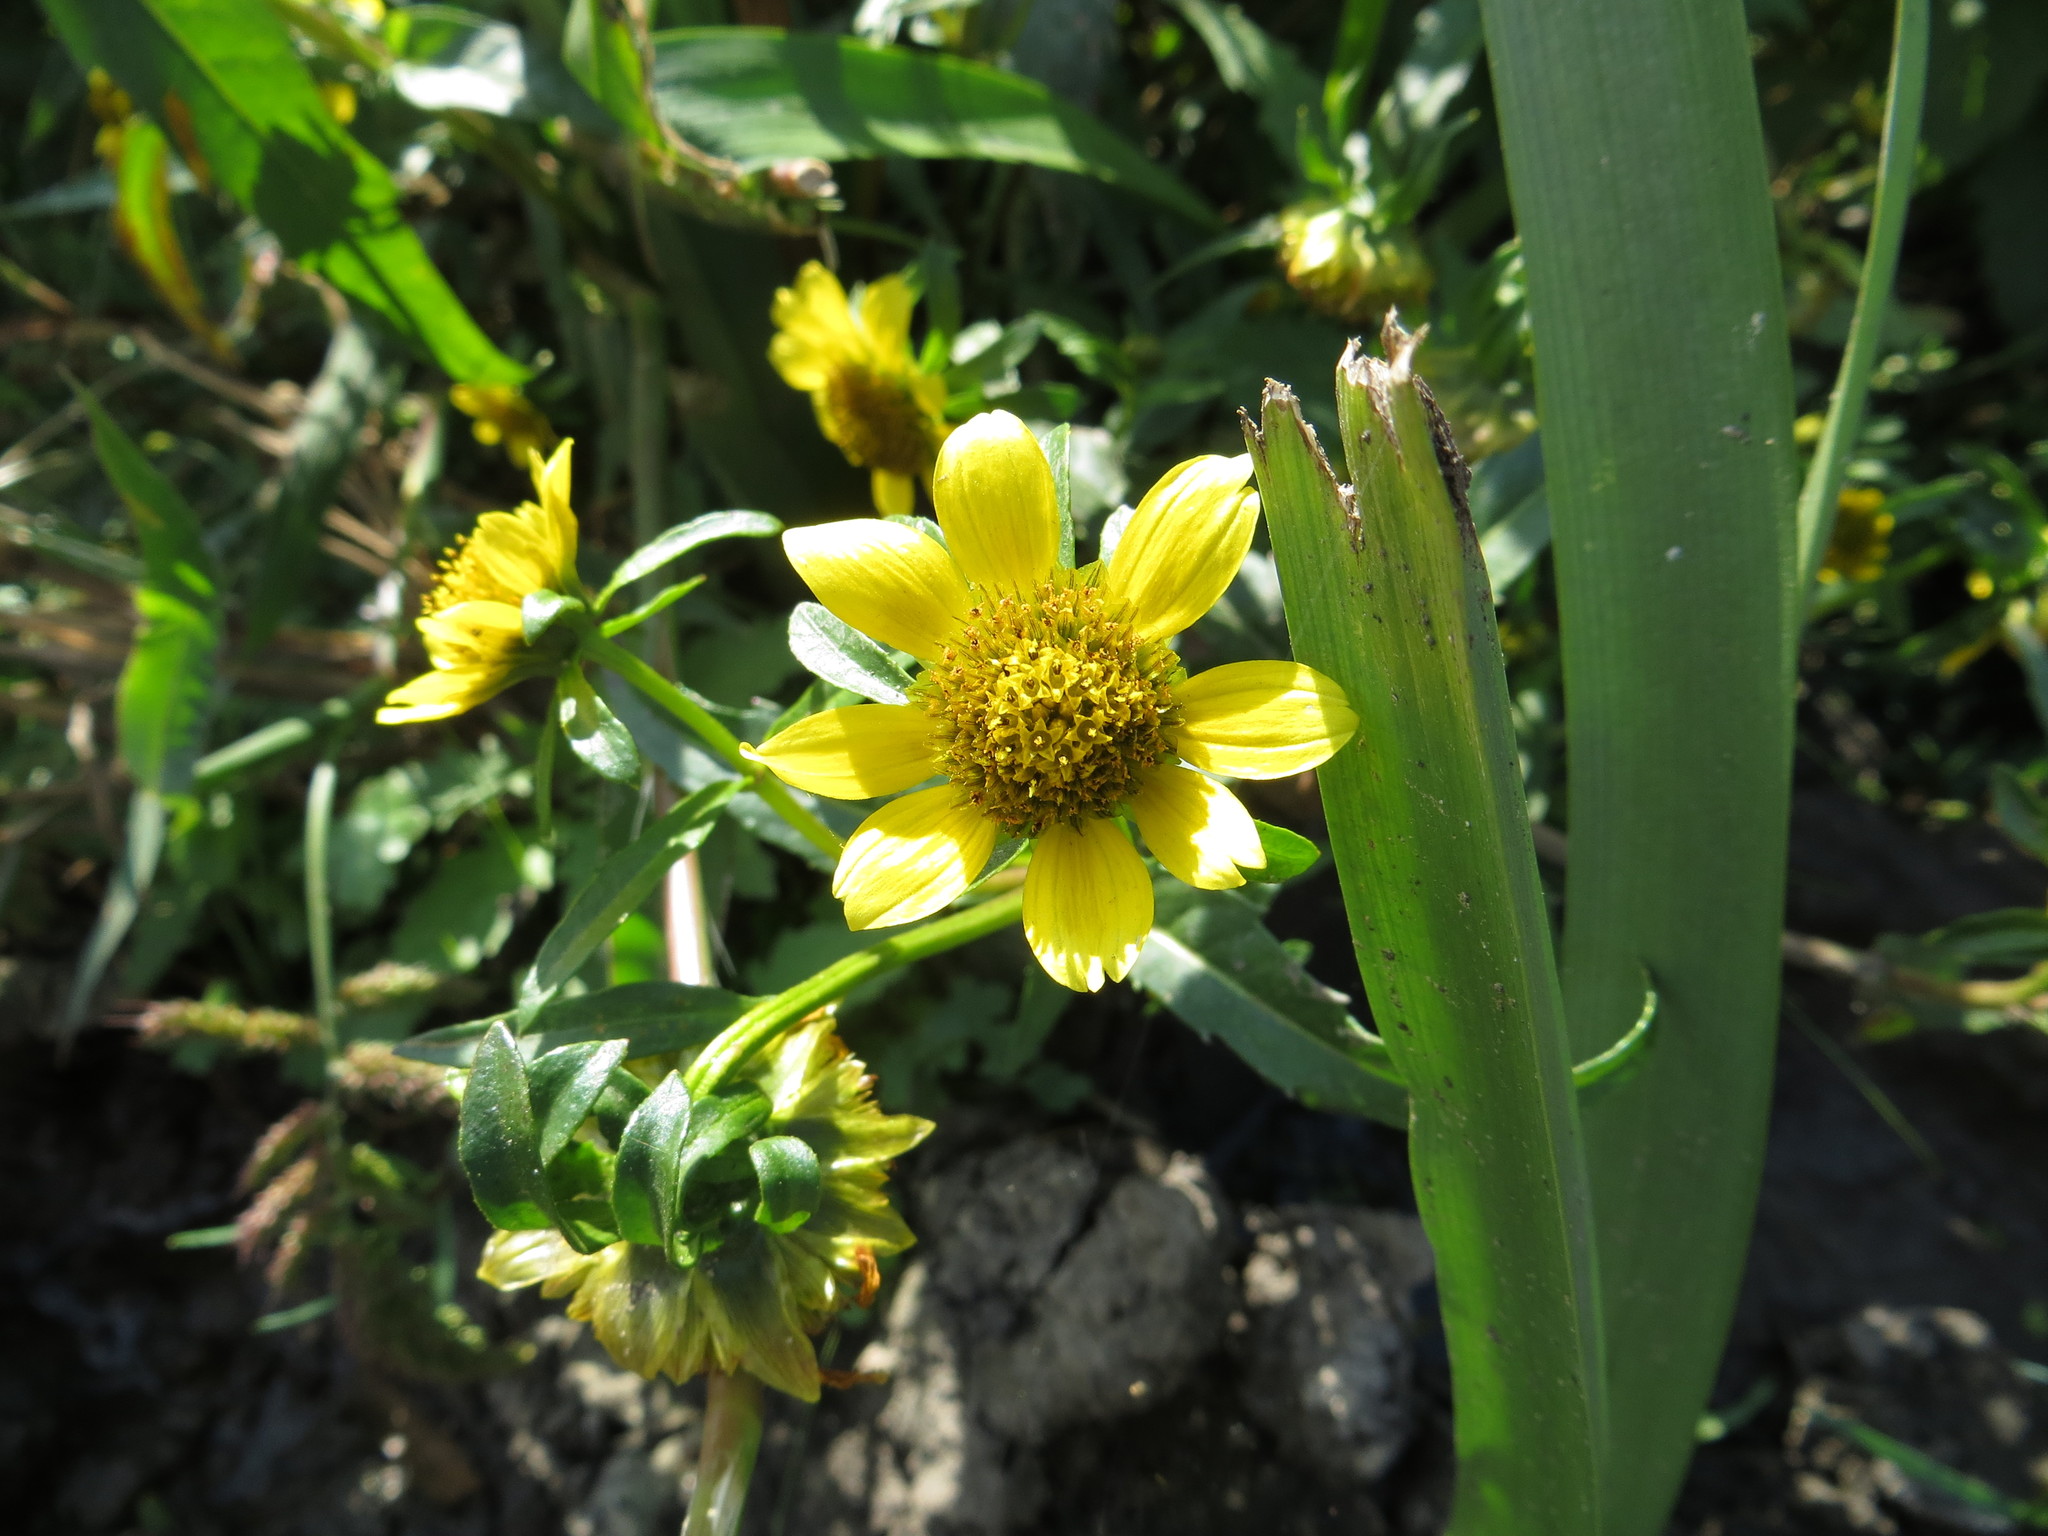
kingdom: Plantae
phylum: Tracheophyta
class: Magnoliopsida
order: Asterales
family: Asteraceae
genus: Bidens
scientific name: Bidens cernua
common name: Nodding bur-marigold
